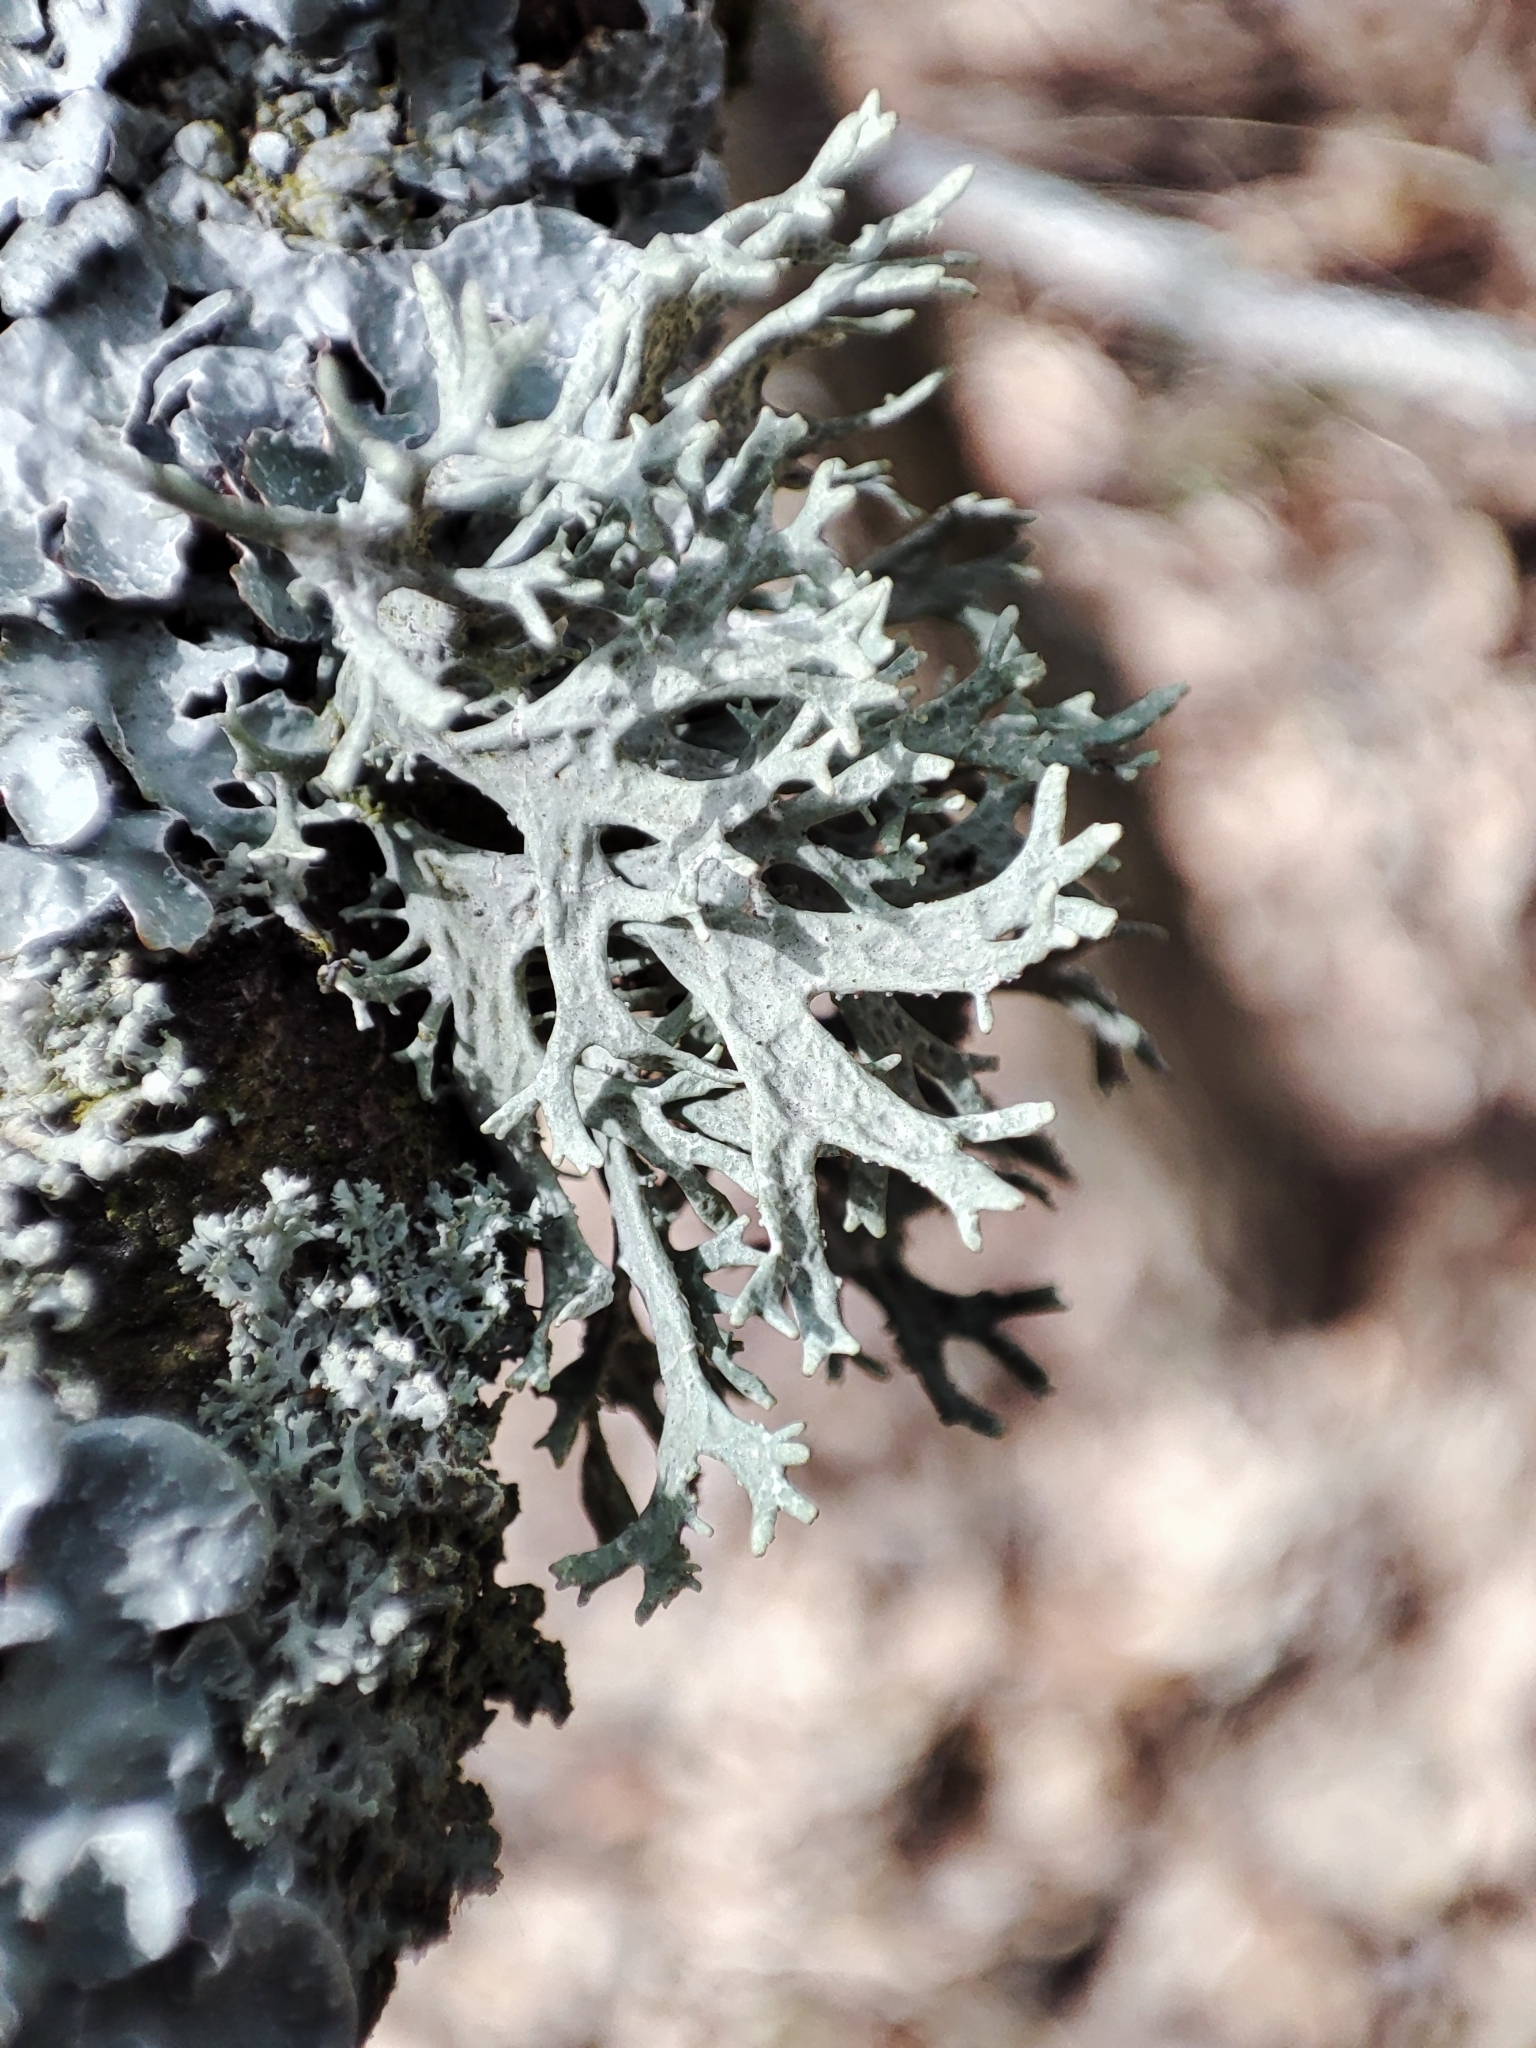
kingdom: Fungi
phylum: Ascomycota
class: Lecanoromycetes
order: Lecanorales
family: Parmeliaceae
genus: Evernia
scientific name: Evernia prunastri
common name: Oak moss
